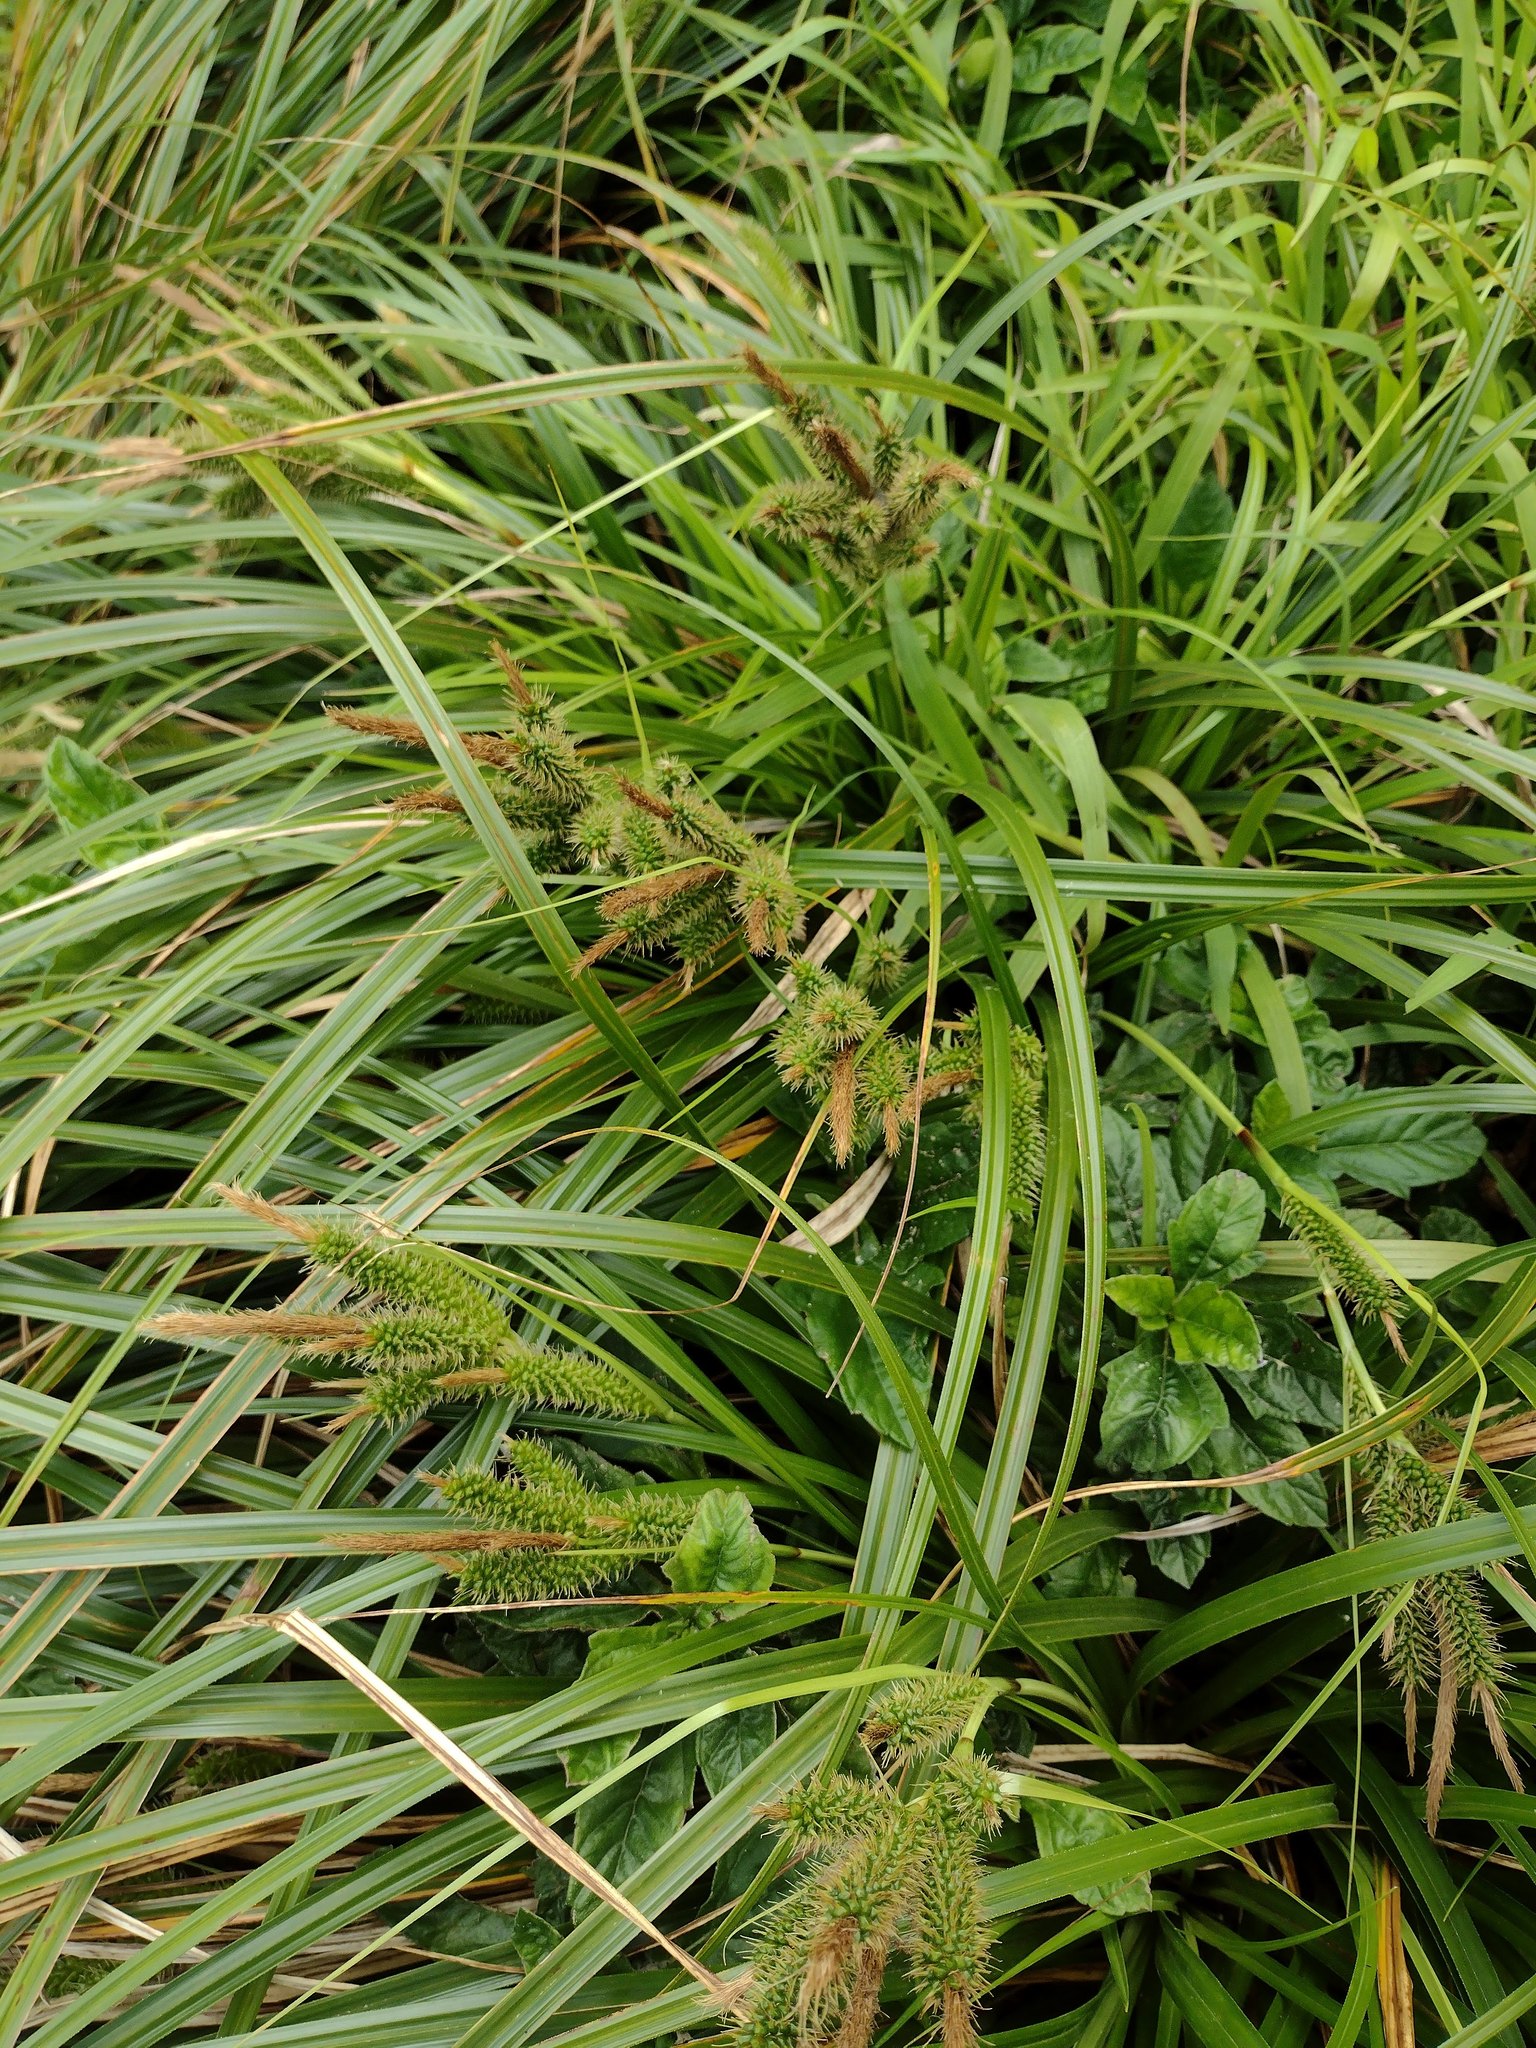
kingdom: Plantae
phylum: Tracheophyta
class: Liliopsida
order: Poales
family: Cyperaceae
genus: Carex
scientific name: Carex wahuensis
